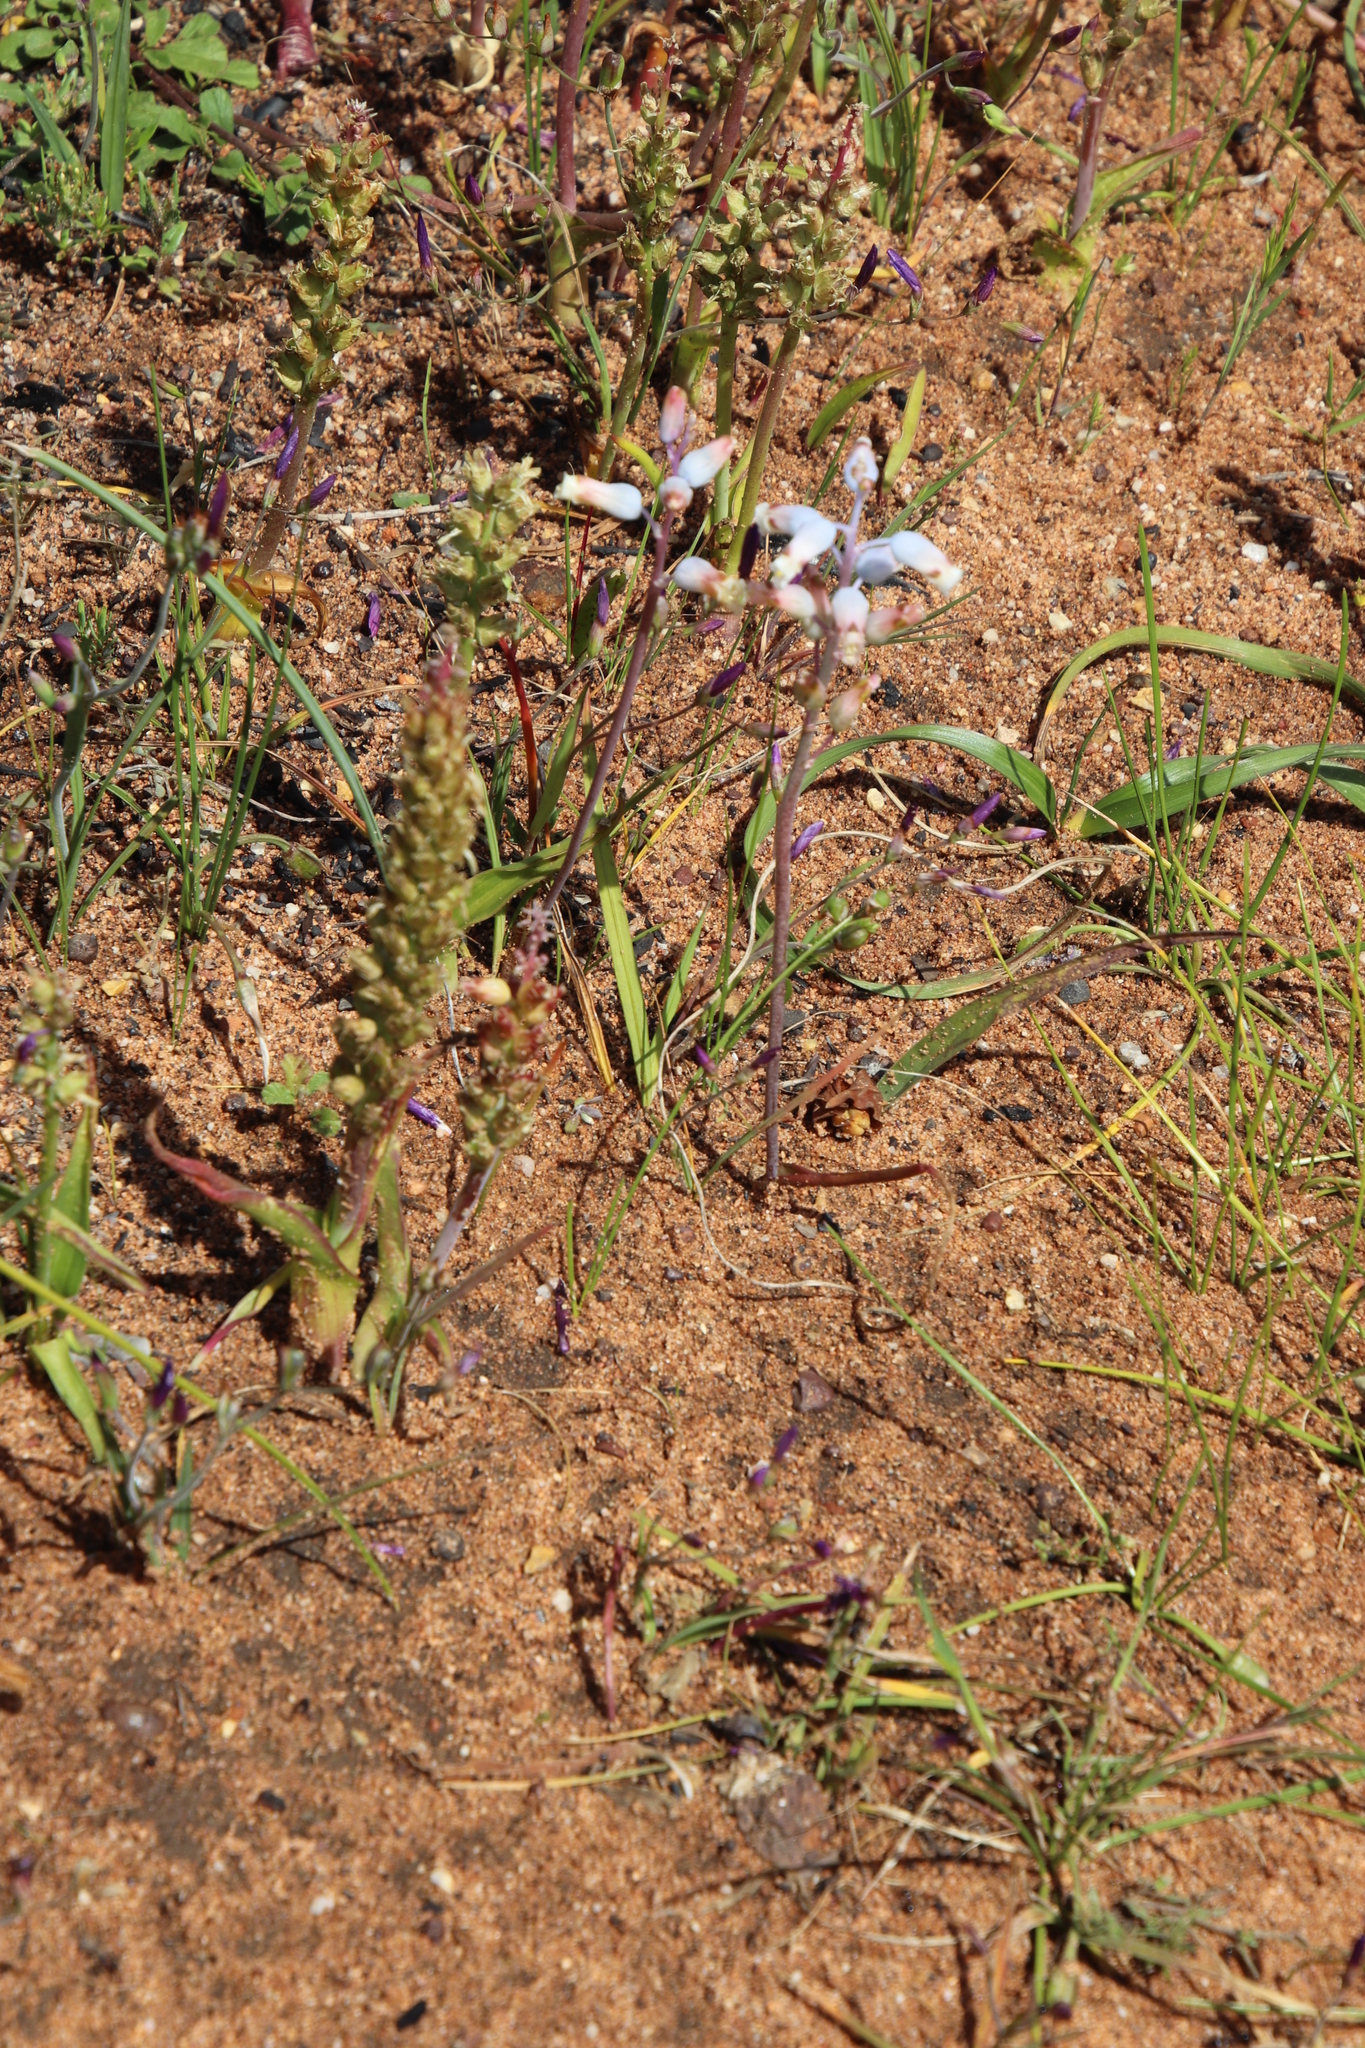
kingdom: Plantae
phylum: Tracheophyta
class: Liliopsida
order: Asparagales
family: Asparagaceae
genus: Lachenalia
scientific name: Lachenalia unifolia
